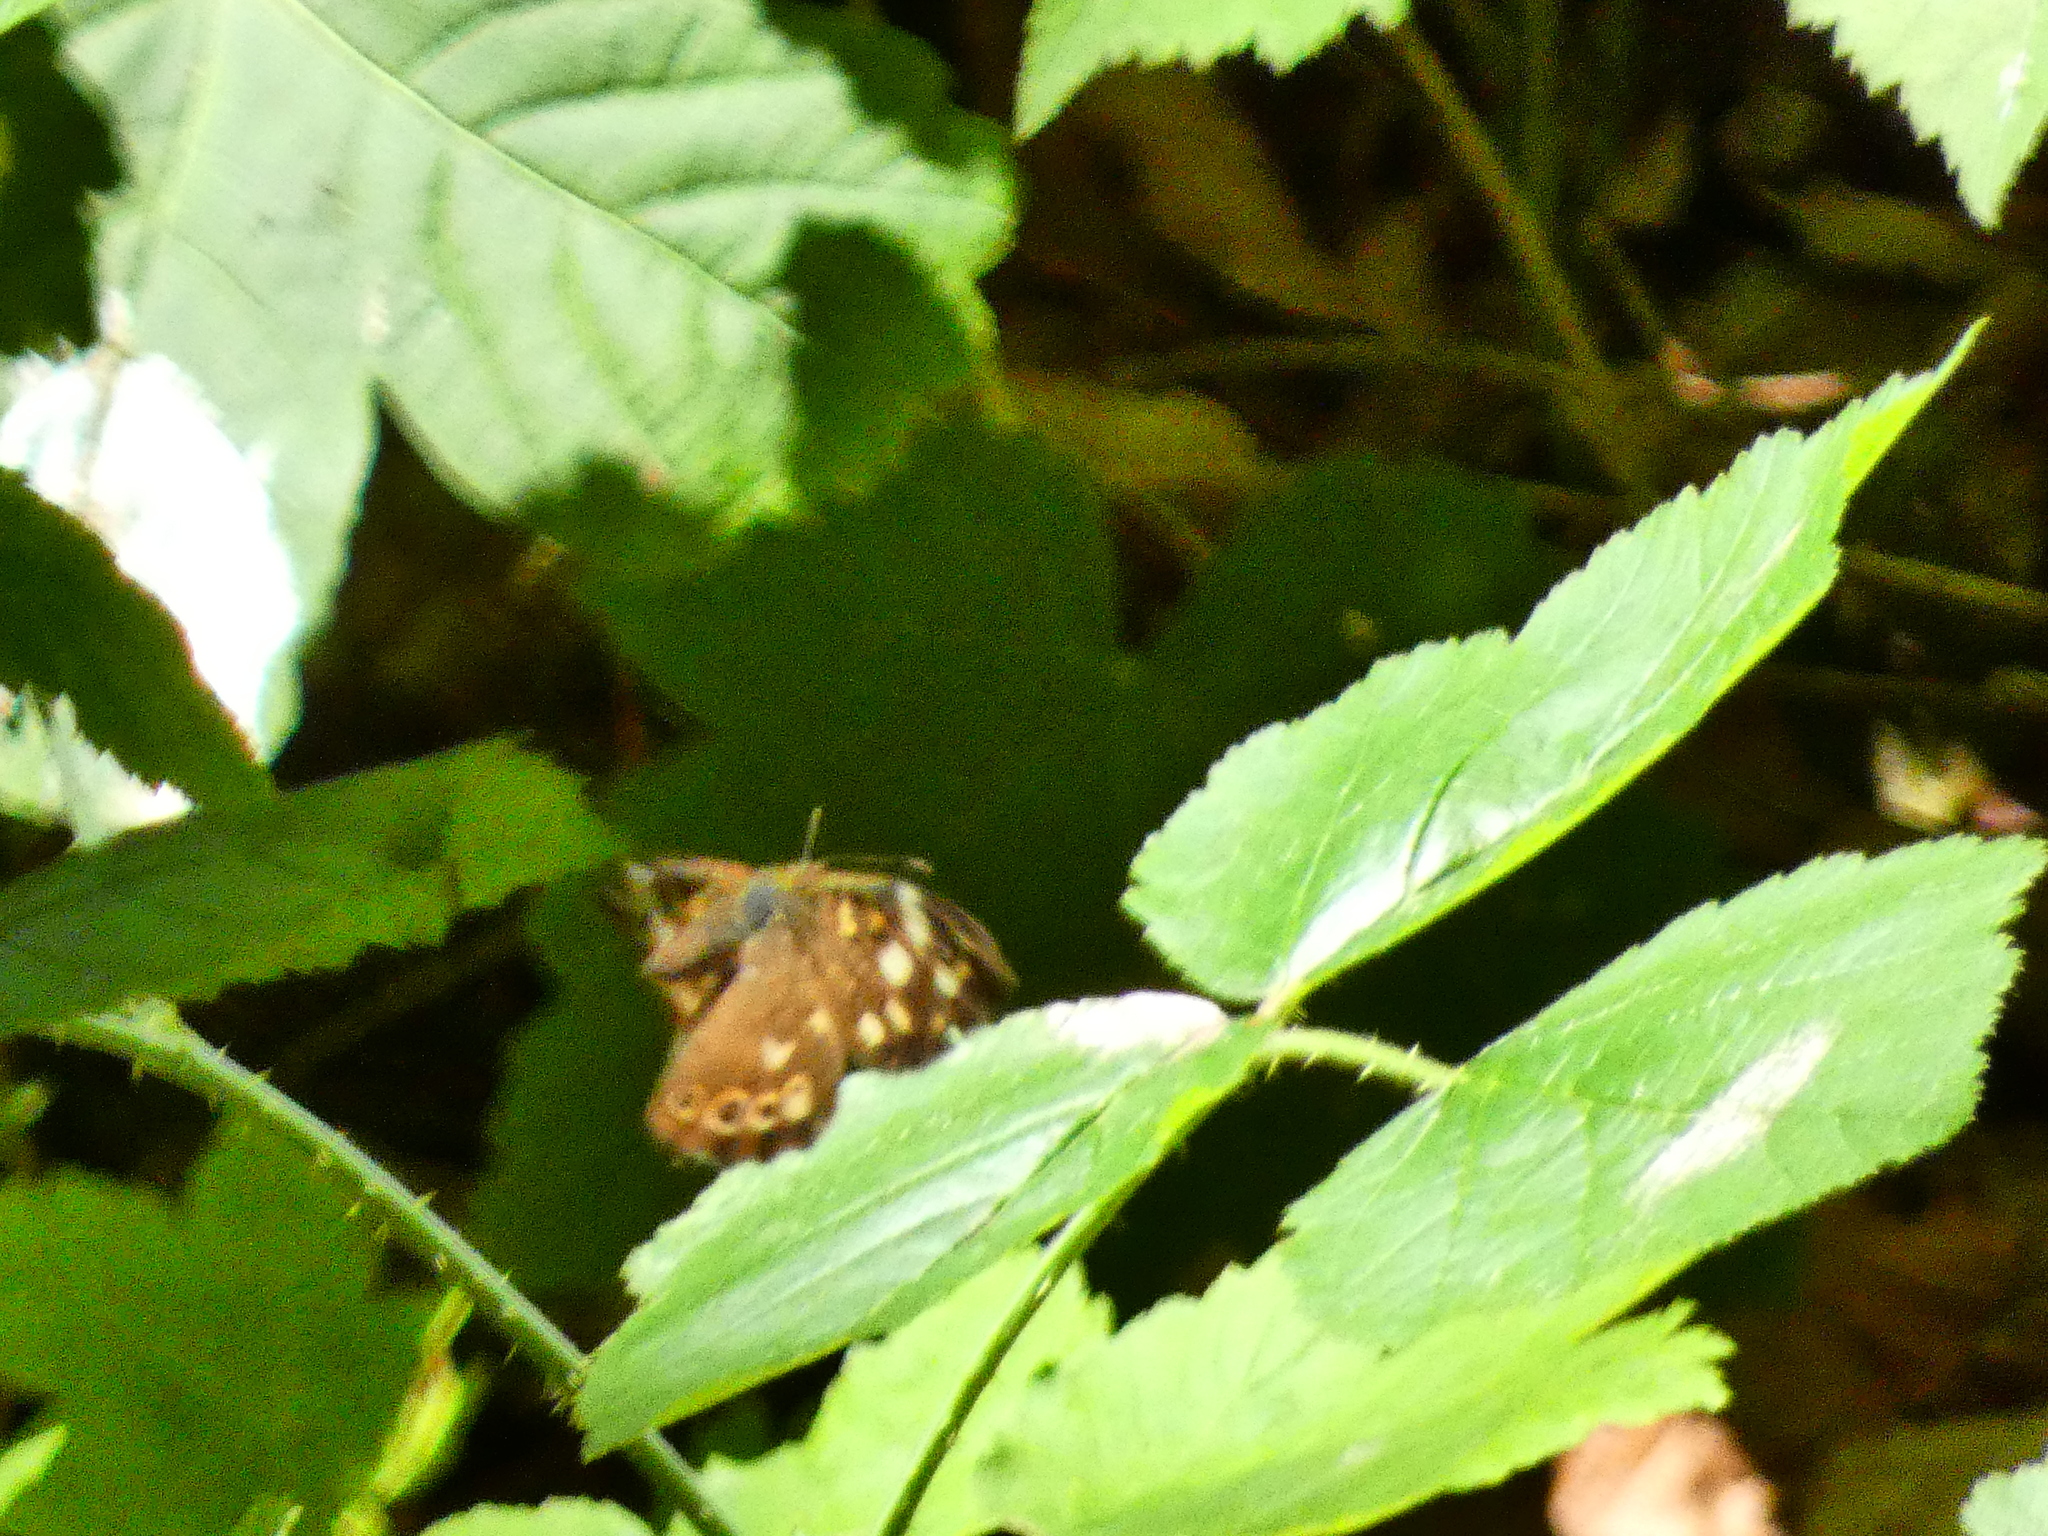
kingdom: Animalia
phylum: Arthropoda
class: Insecta
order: Lepidoptera
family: Nymphalidae
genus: Pararge
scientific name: Pararge aegeria
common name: Speckled wood
